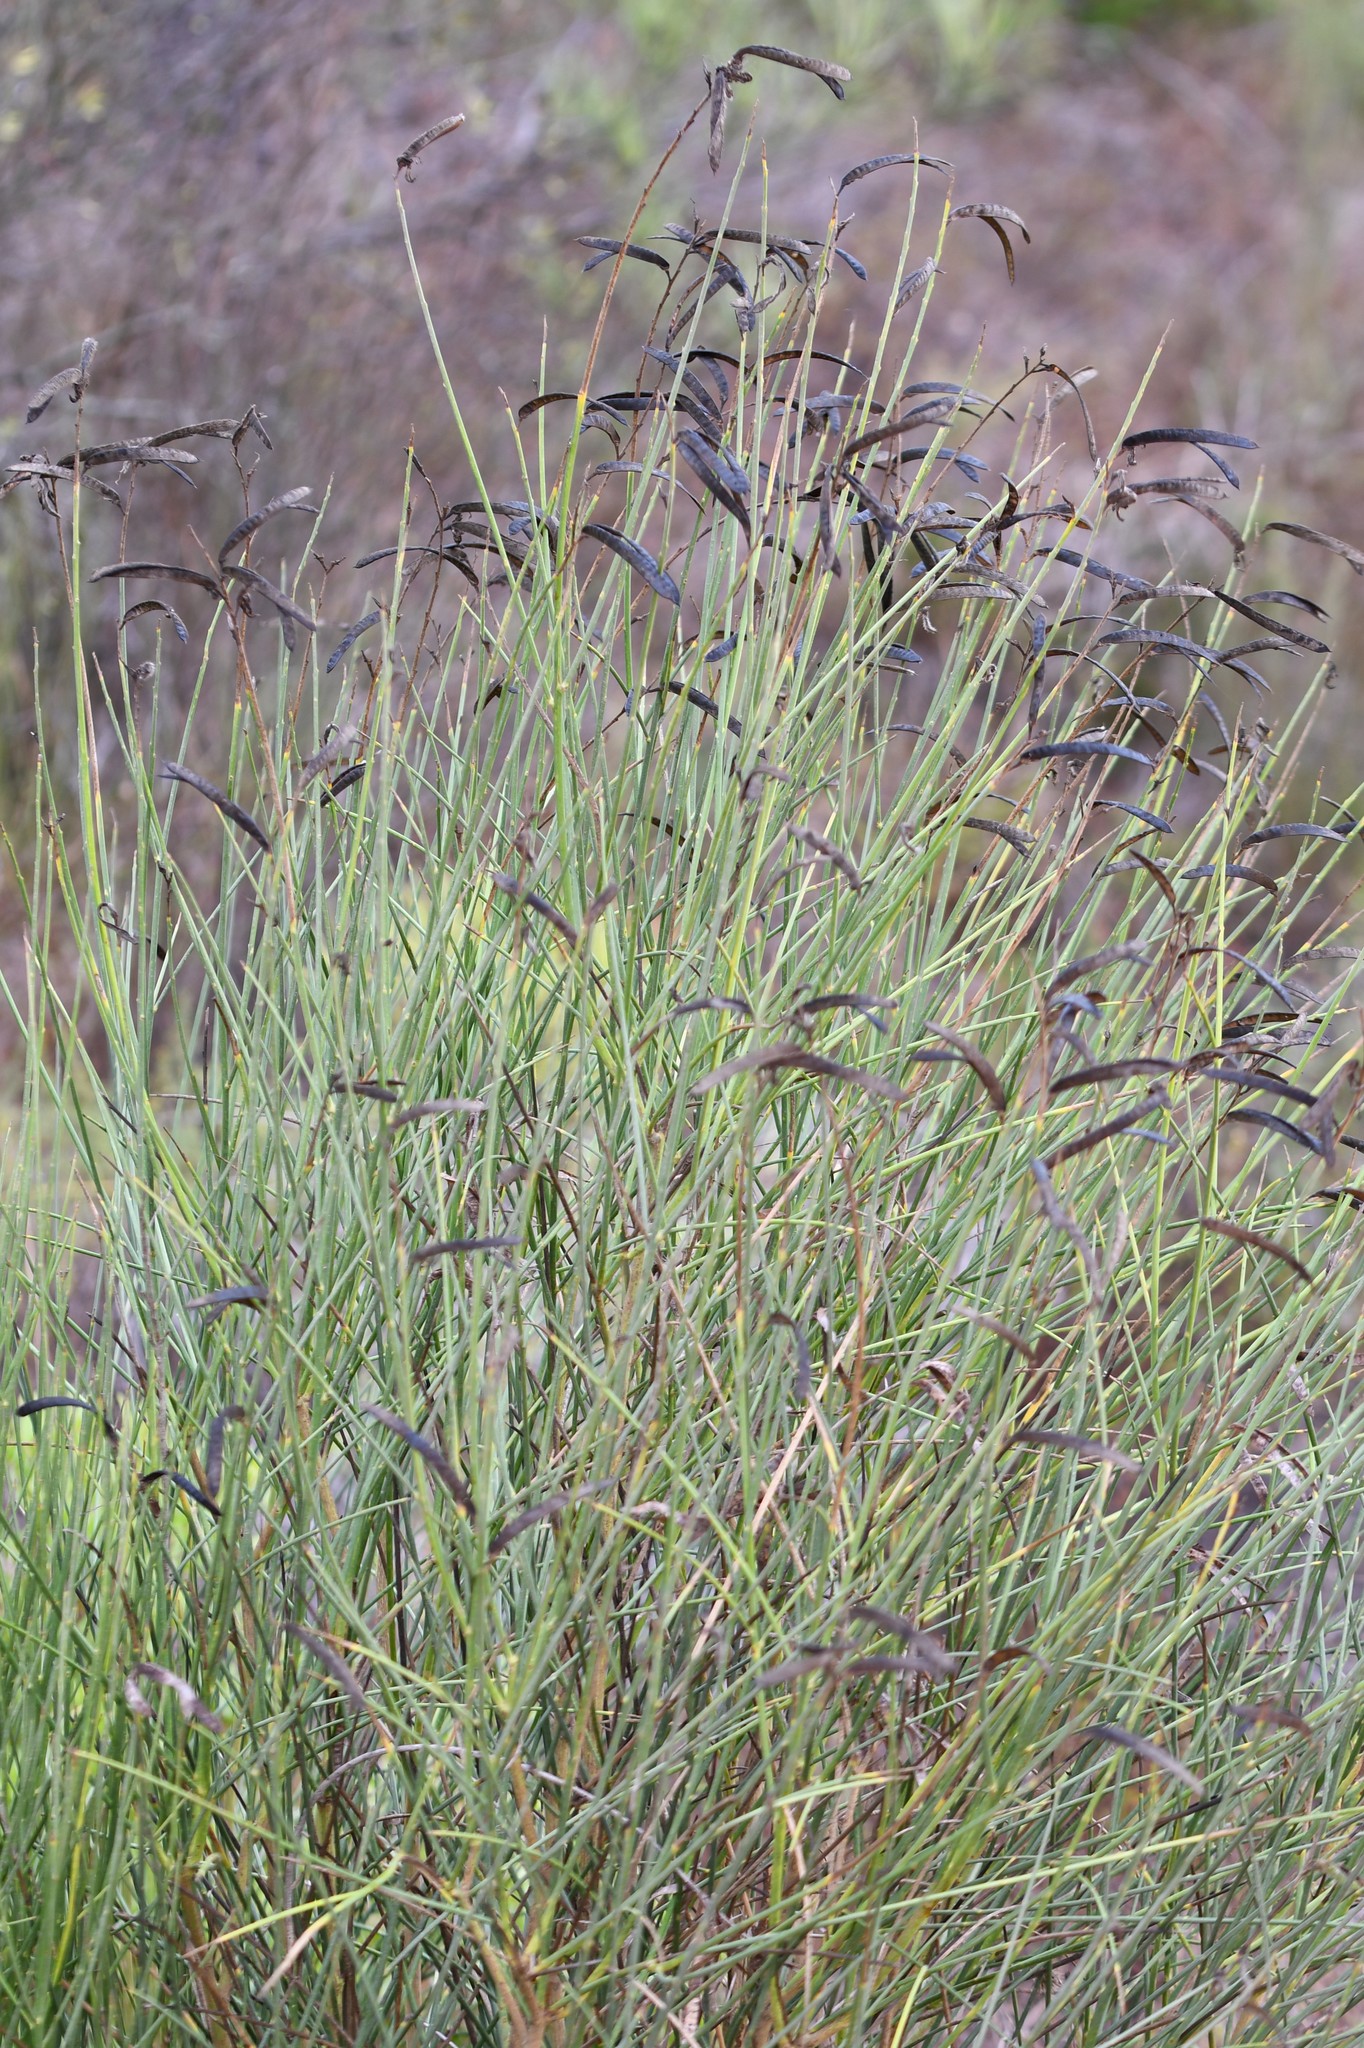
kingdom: Plantae
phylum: Tracheophyta
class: Magnoliopsida
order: Fabales
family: Fabaceae
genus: Spartium
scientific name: Spartium junceum
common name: Spanish broom
